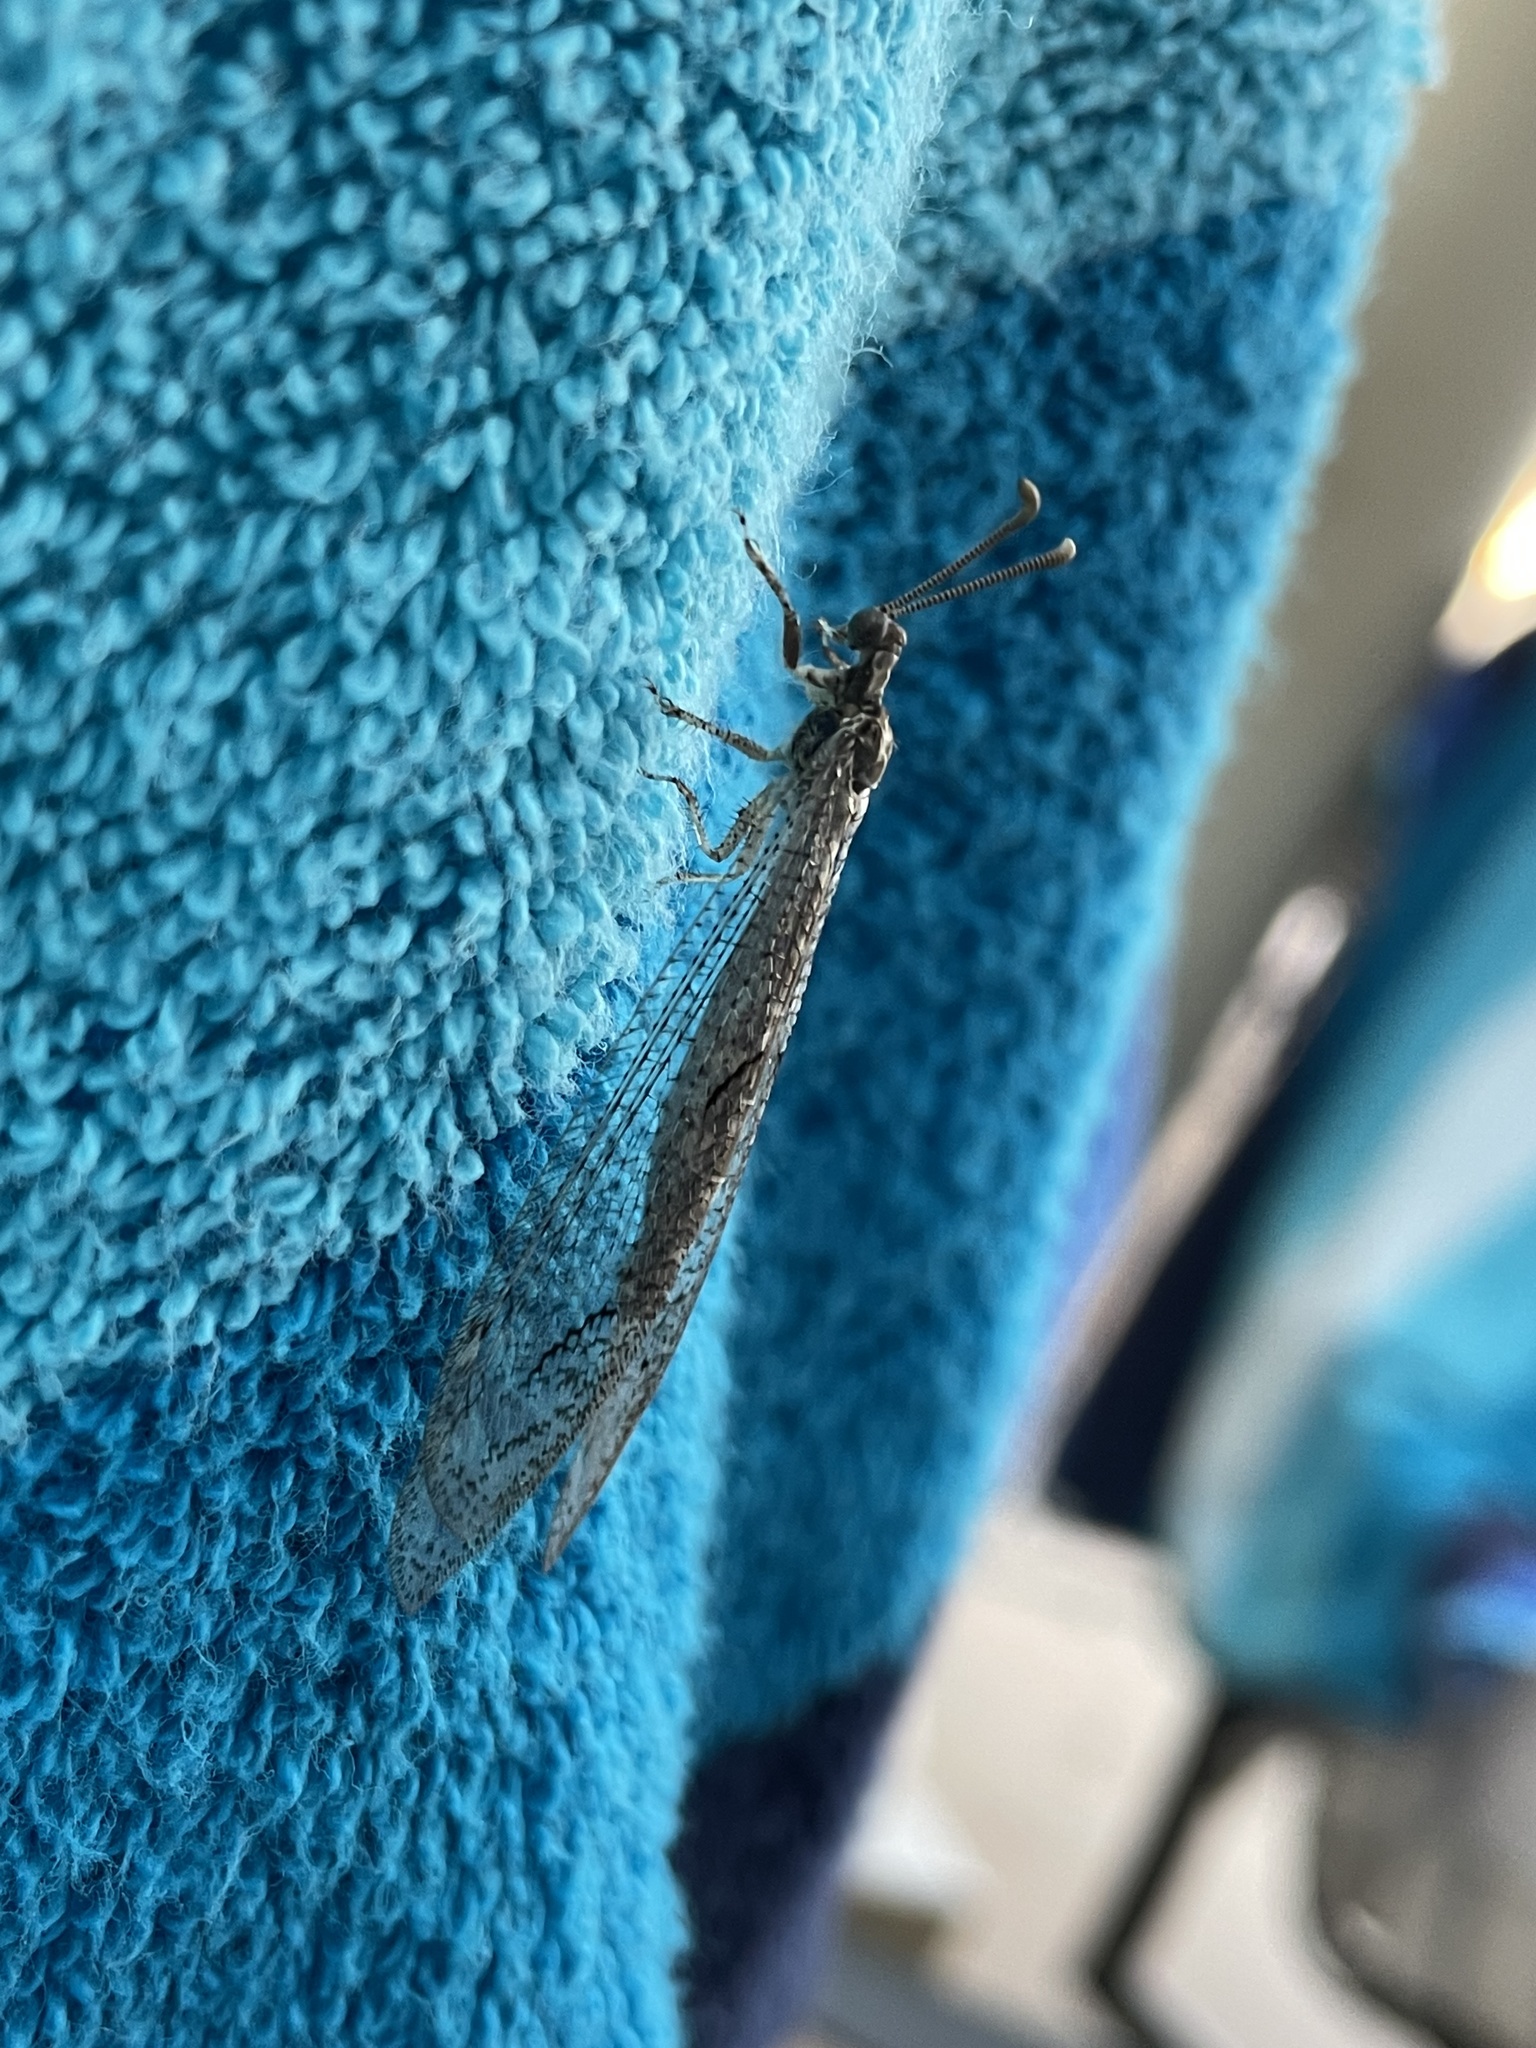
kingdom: Animalia
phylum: Arthropoda
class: Insecta
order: Neuroptera
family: Myrmeleontidae
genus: Euptilon
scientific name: Euptilon ornatum
